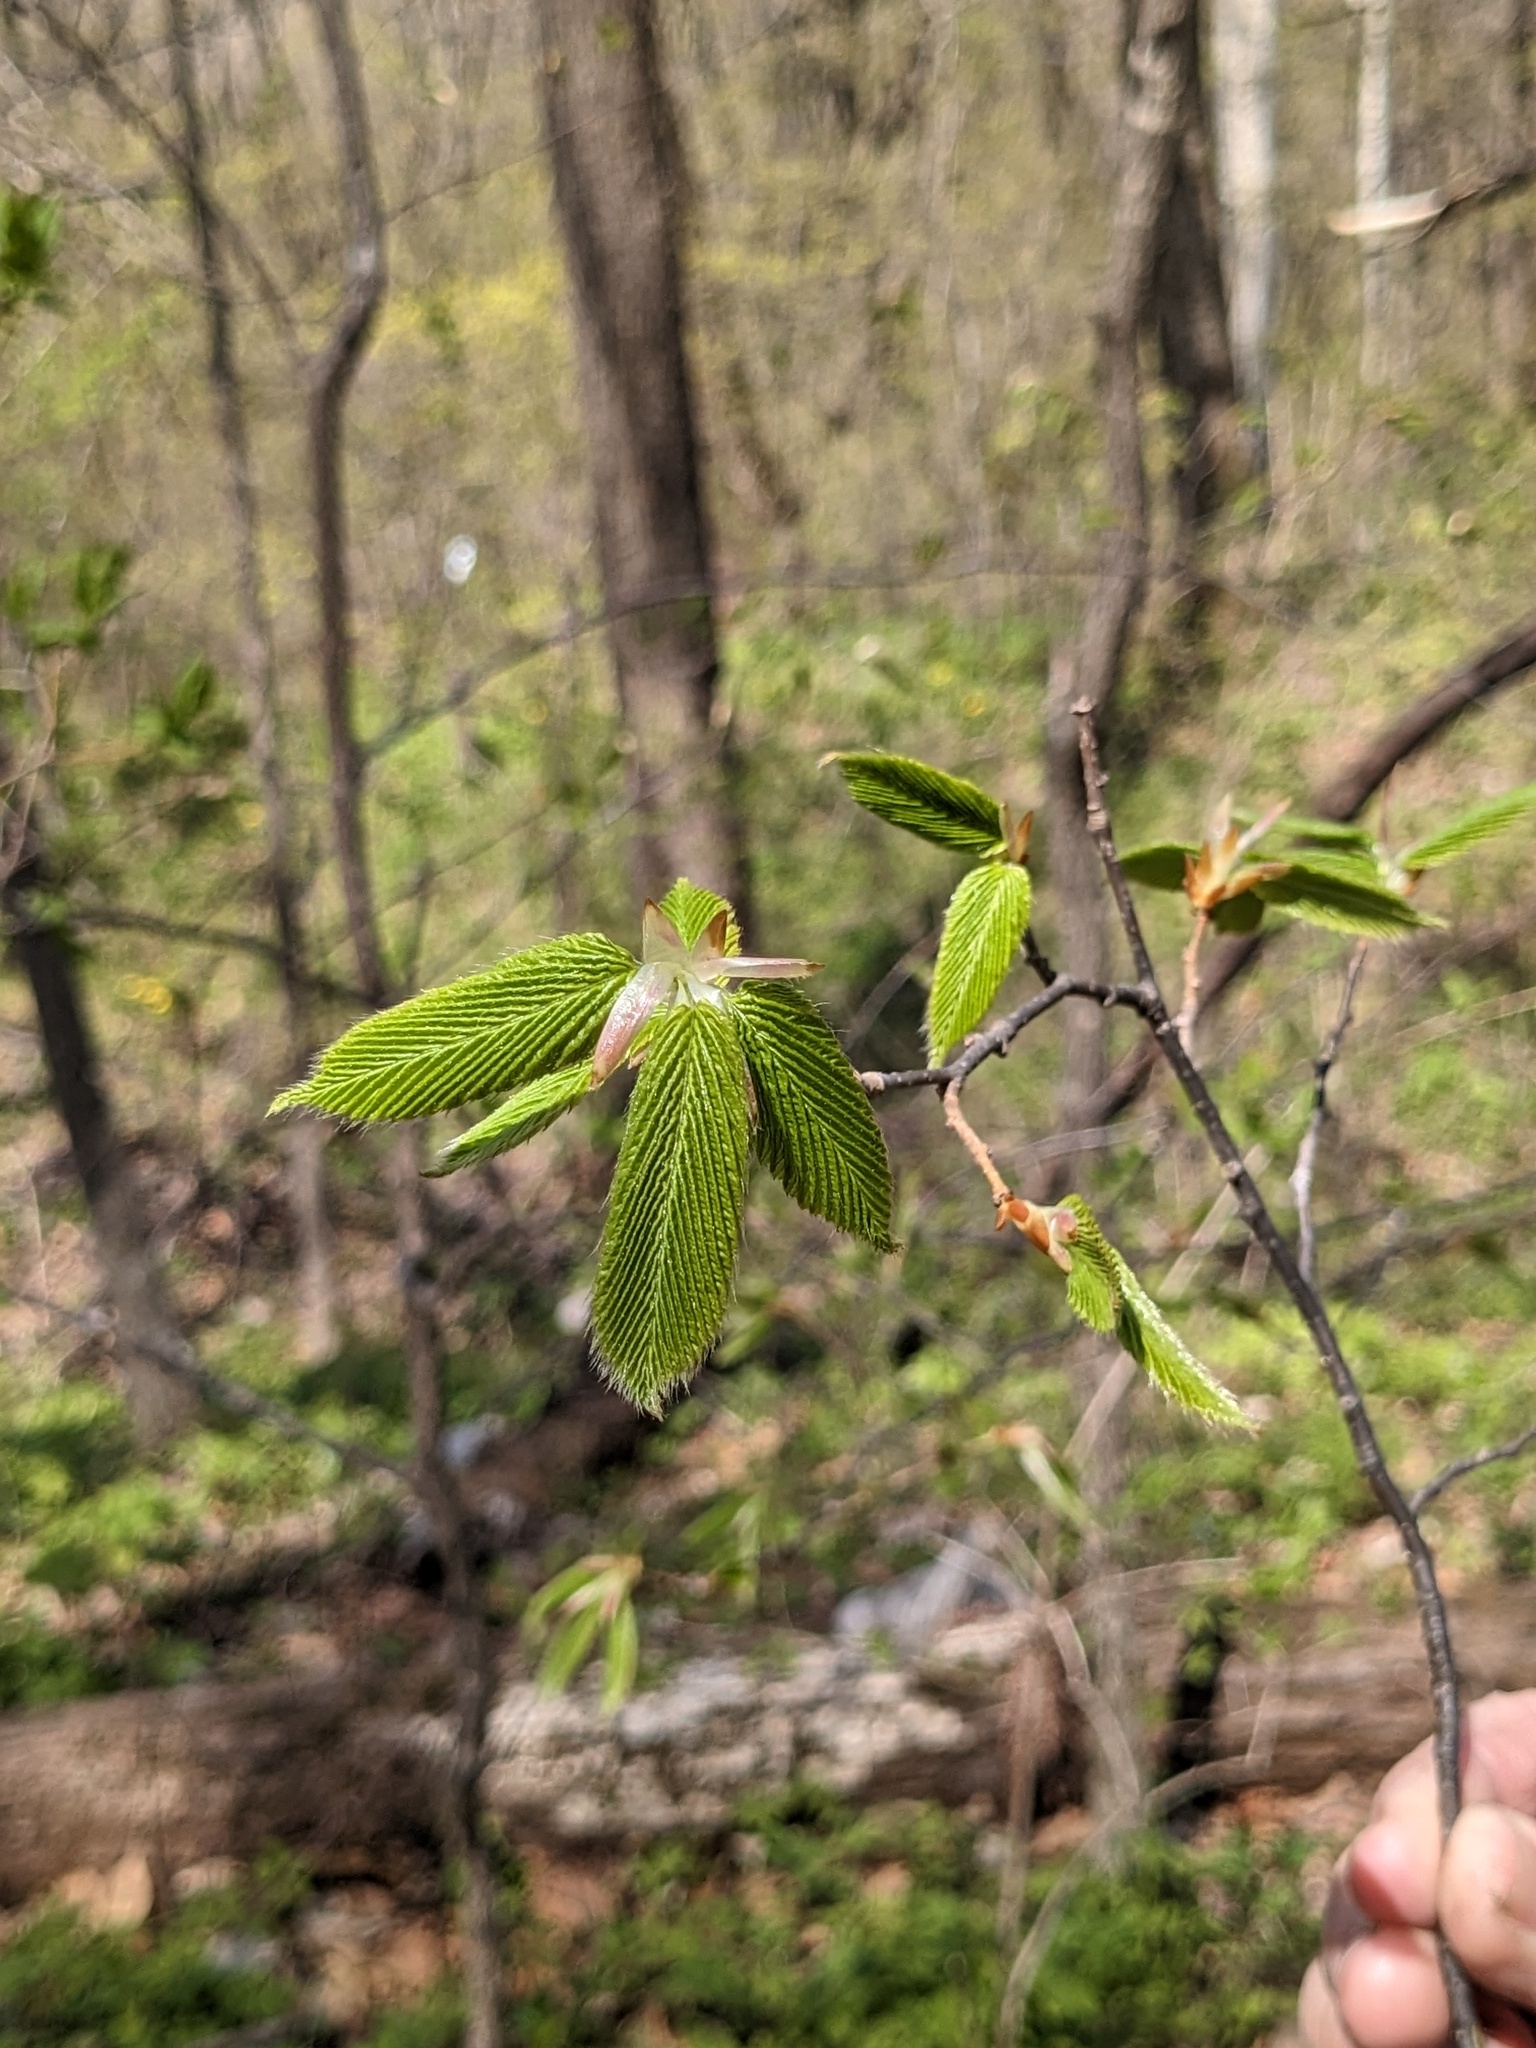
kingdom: Plantae
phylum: Tracheophyta
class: Magnoliopsida
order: Fagales
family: Betulaceae
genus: Carpinus
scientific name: Carpinus cordata
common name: Sawa hornbeam
